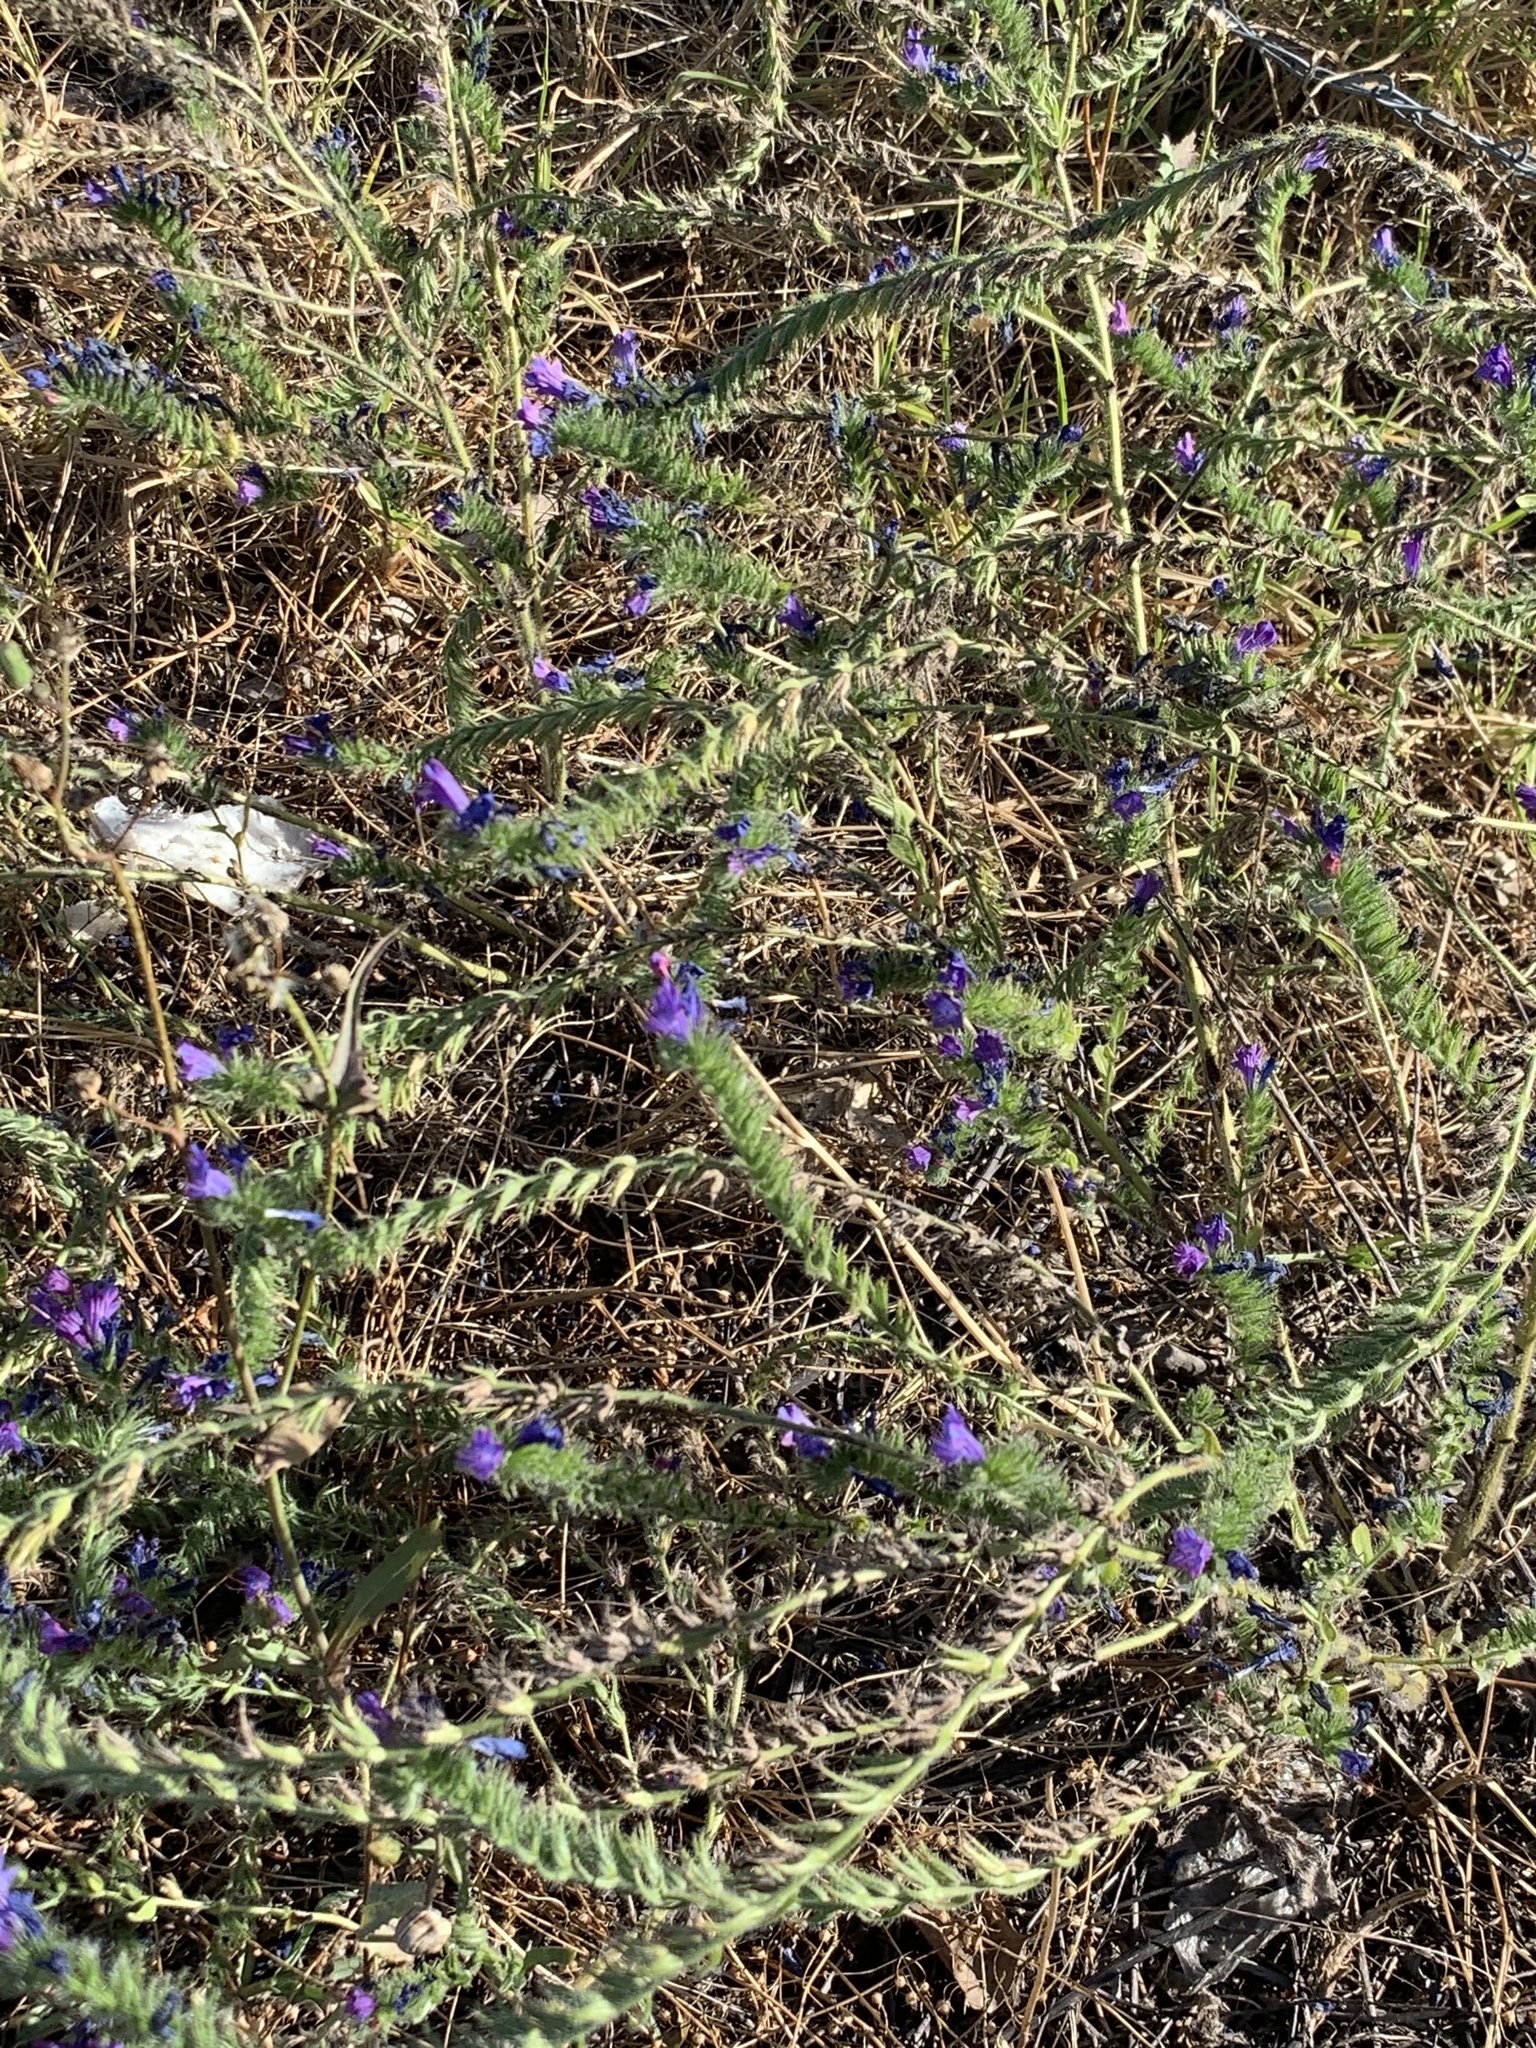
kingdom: Plantae
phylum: Tracheophyta
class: Magnoliopsida
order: Boraginales
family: Boraginaceae
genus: Echium
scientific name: Echium plantagineum
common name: Purple viper's-bugloss
